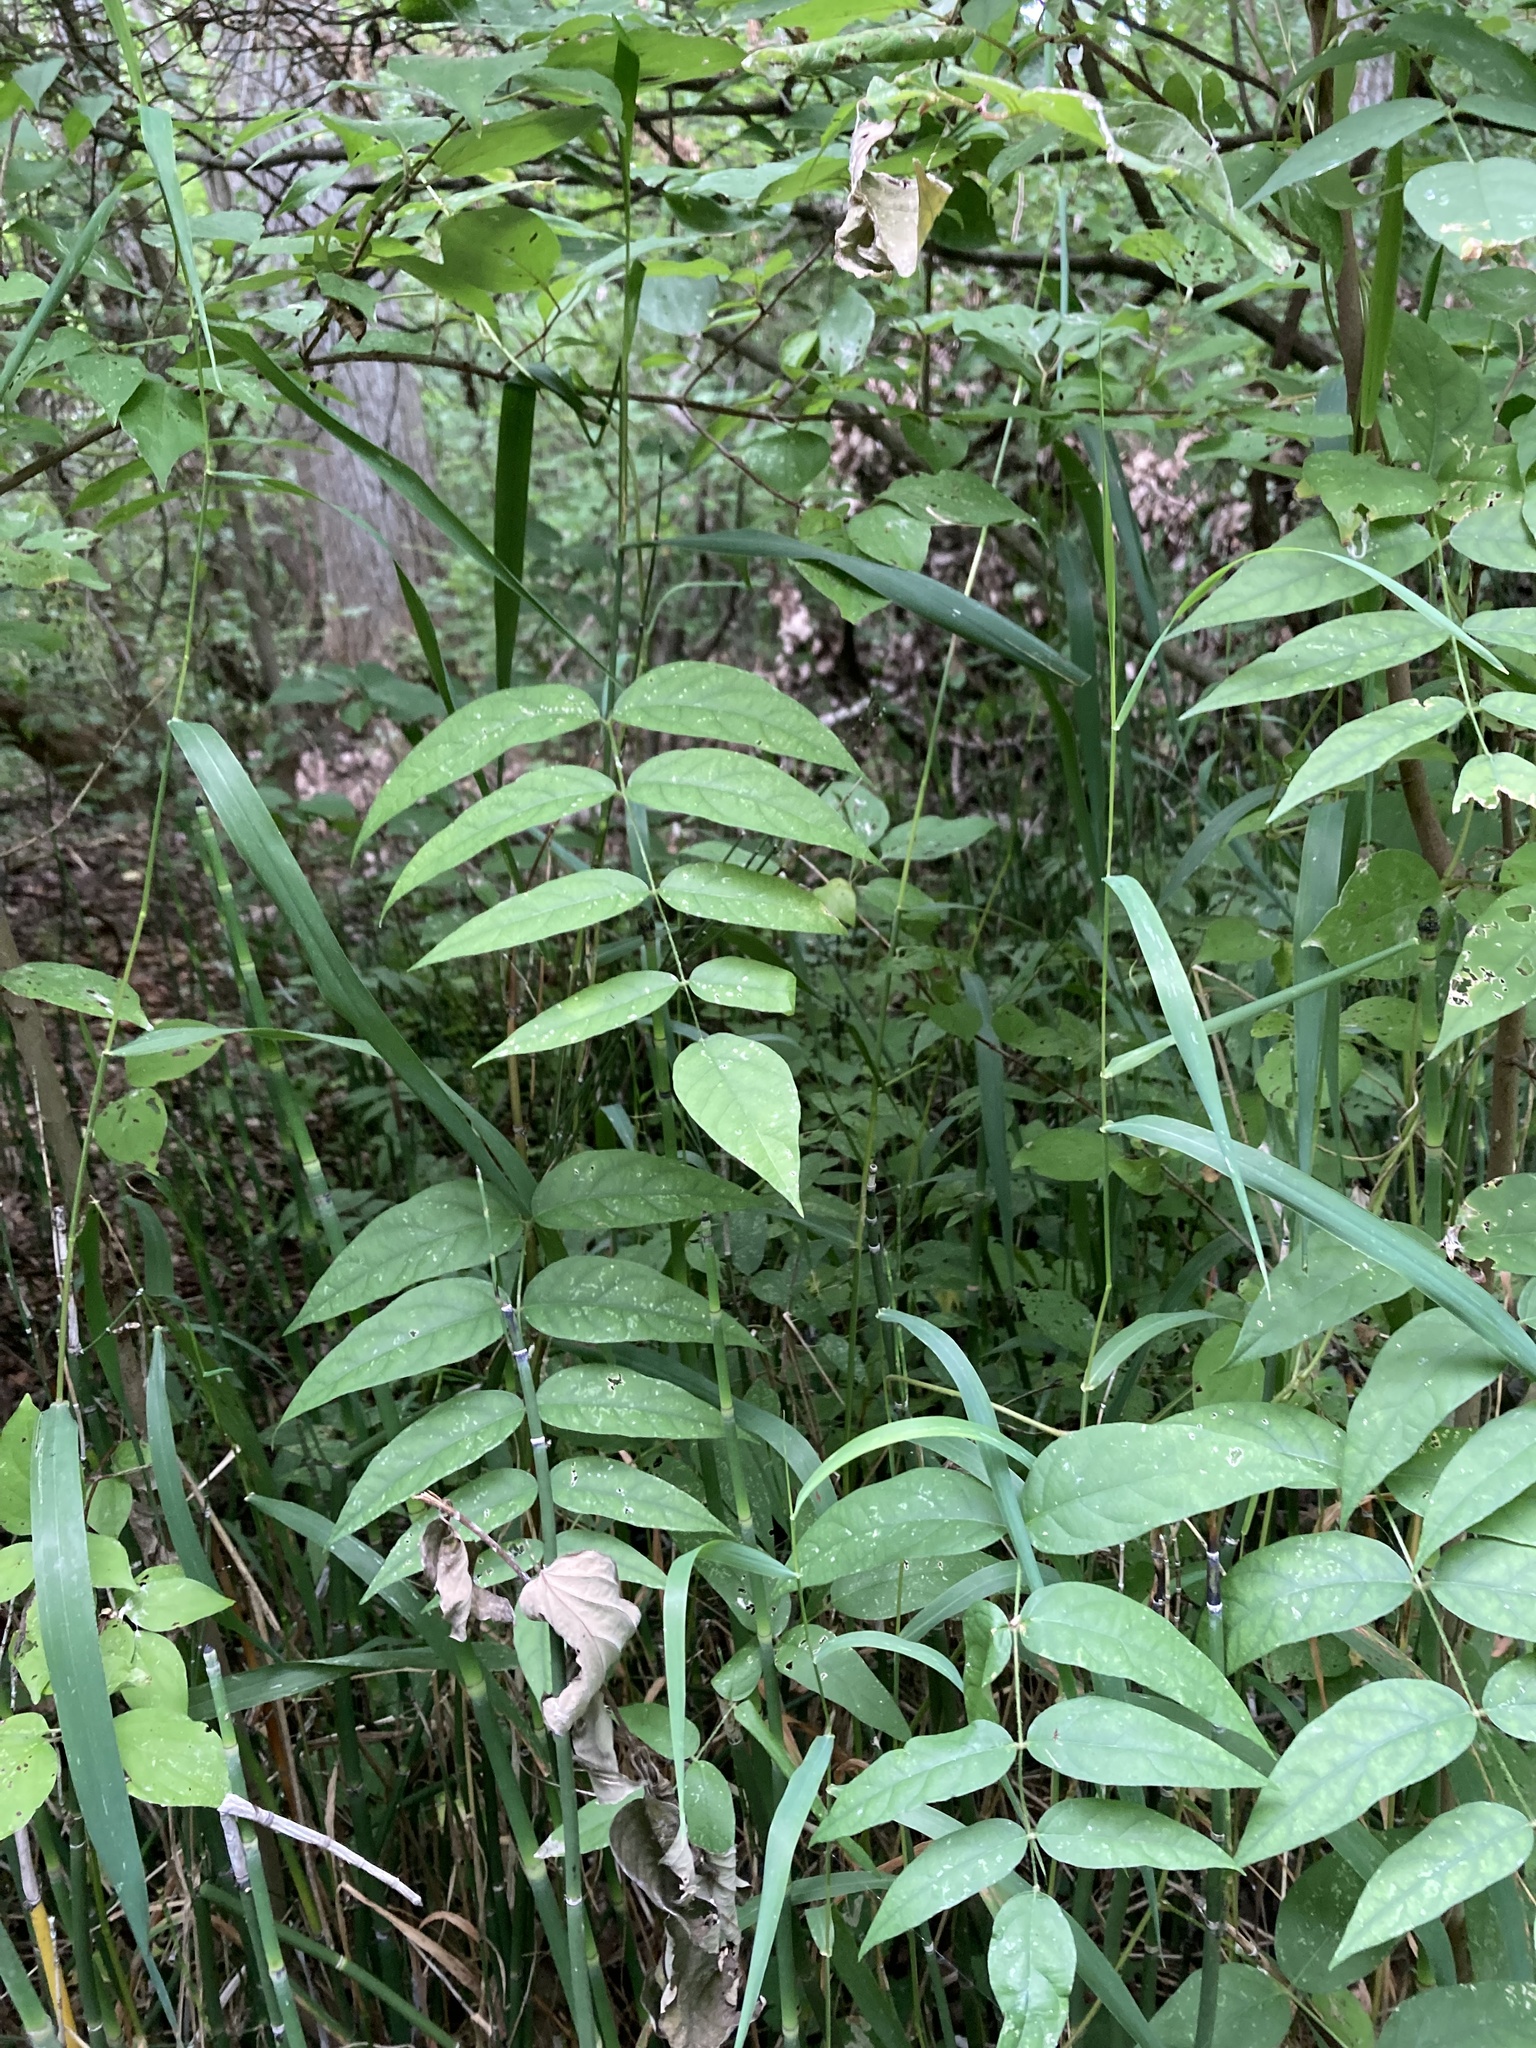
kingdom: Plantae
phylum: Tracheophyta
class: Magnoliopsida
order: Fabales
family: Fabaceae
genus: Apios
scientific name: Apios americana
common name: American potato-bean
